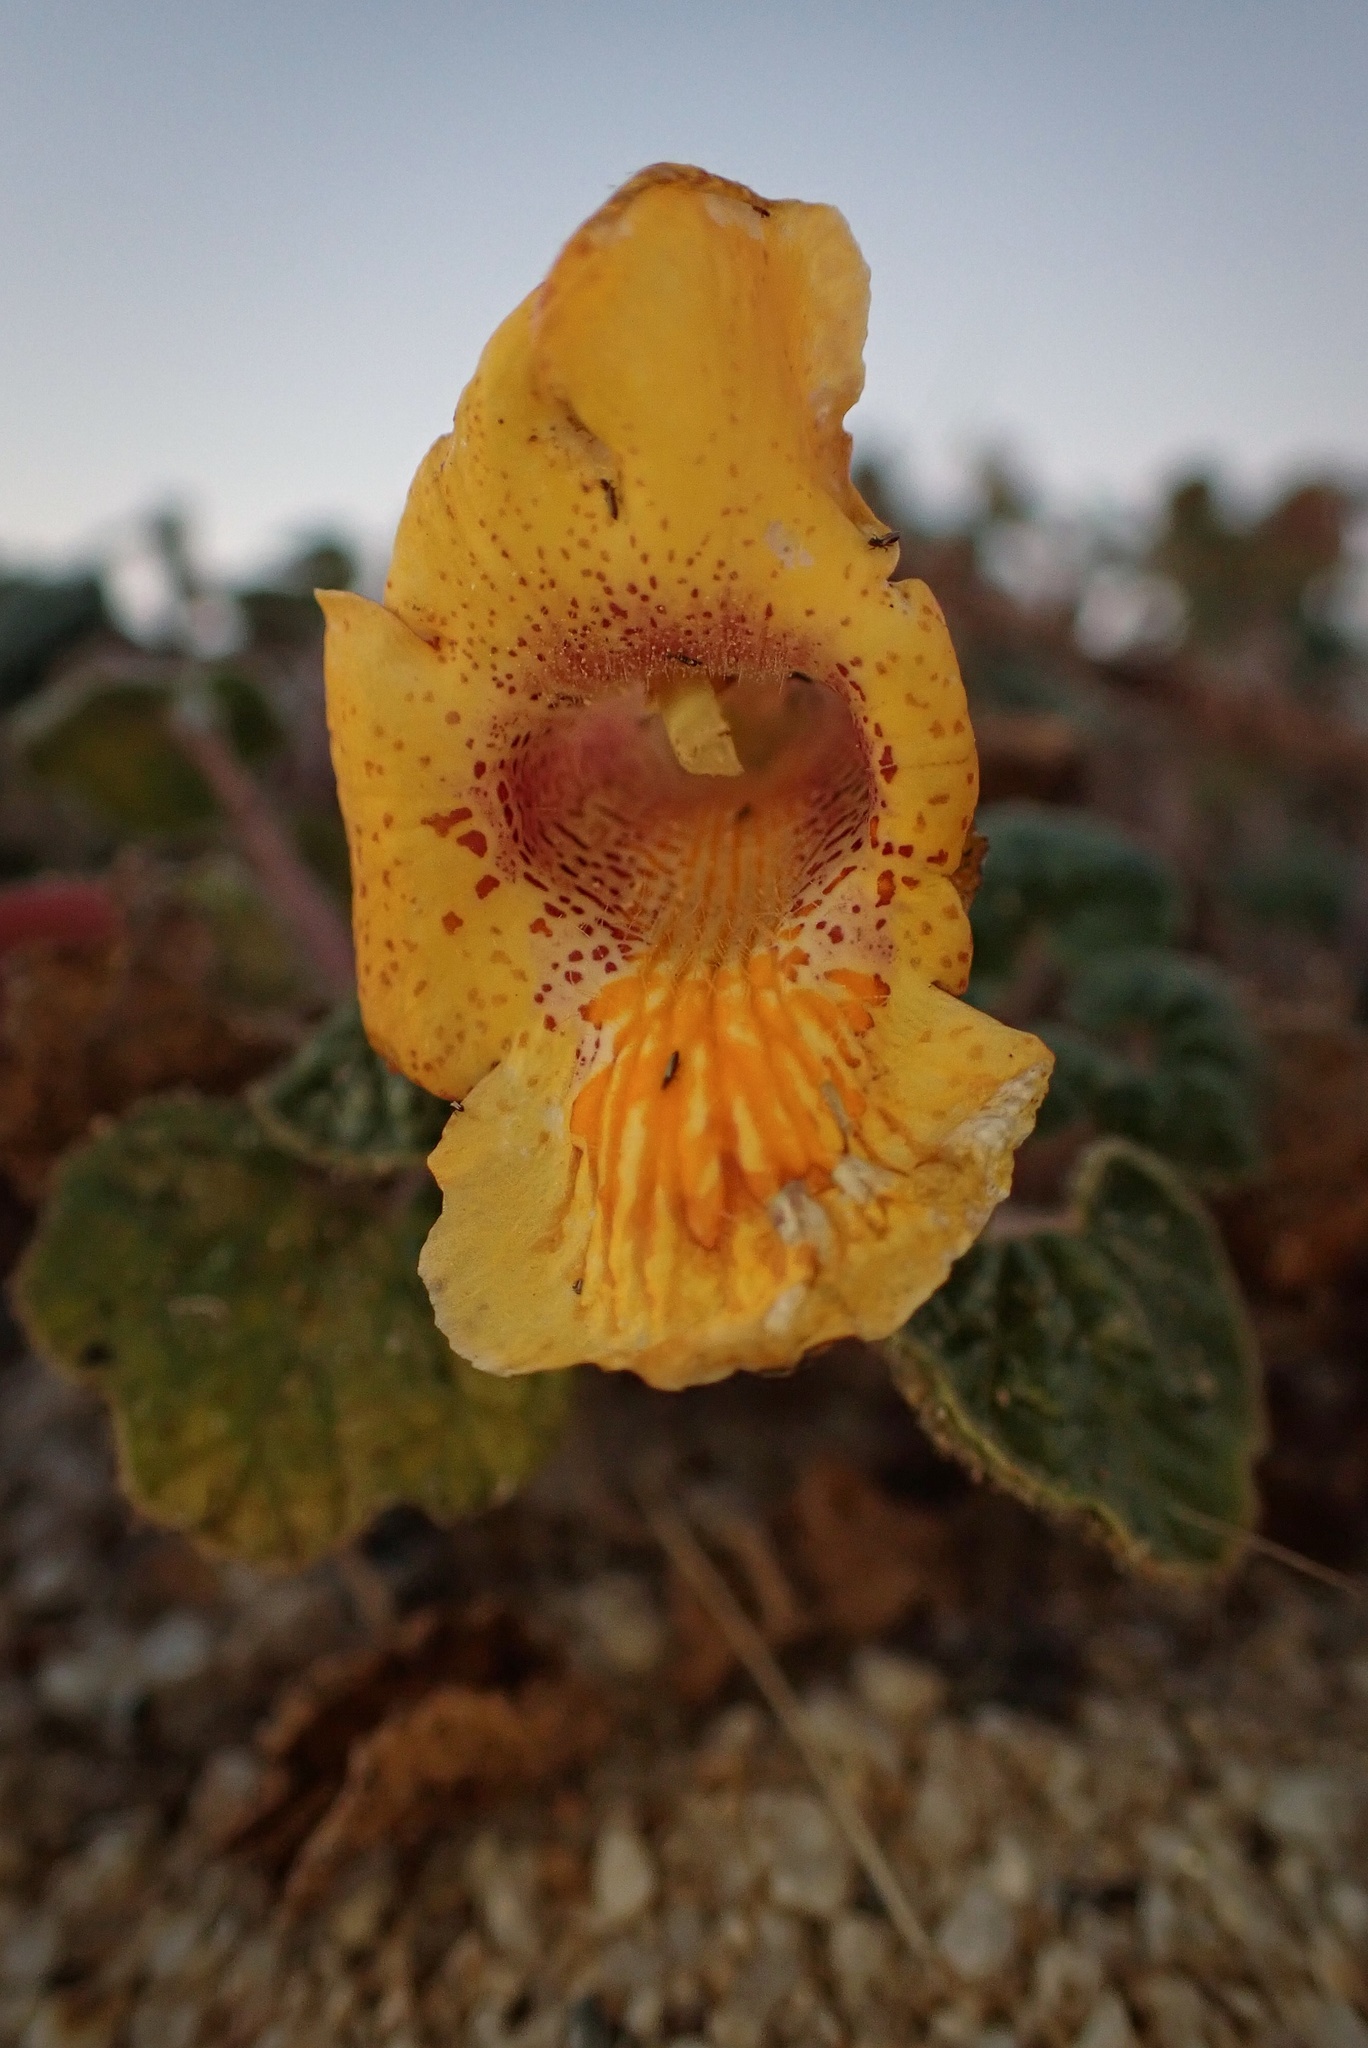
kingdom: Plantae
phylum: Tracheophyta
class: Magnoliopsida
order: Lamiales
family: Martyniaceae
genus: Proboscidea
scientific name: Proboscidea althaeifolia
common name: Desert unicorn-plant
